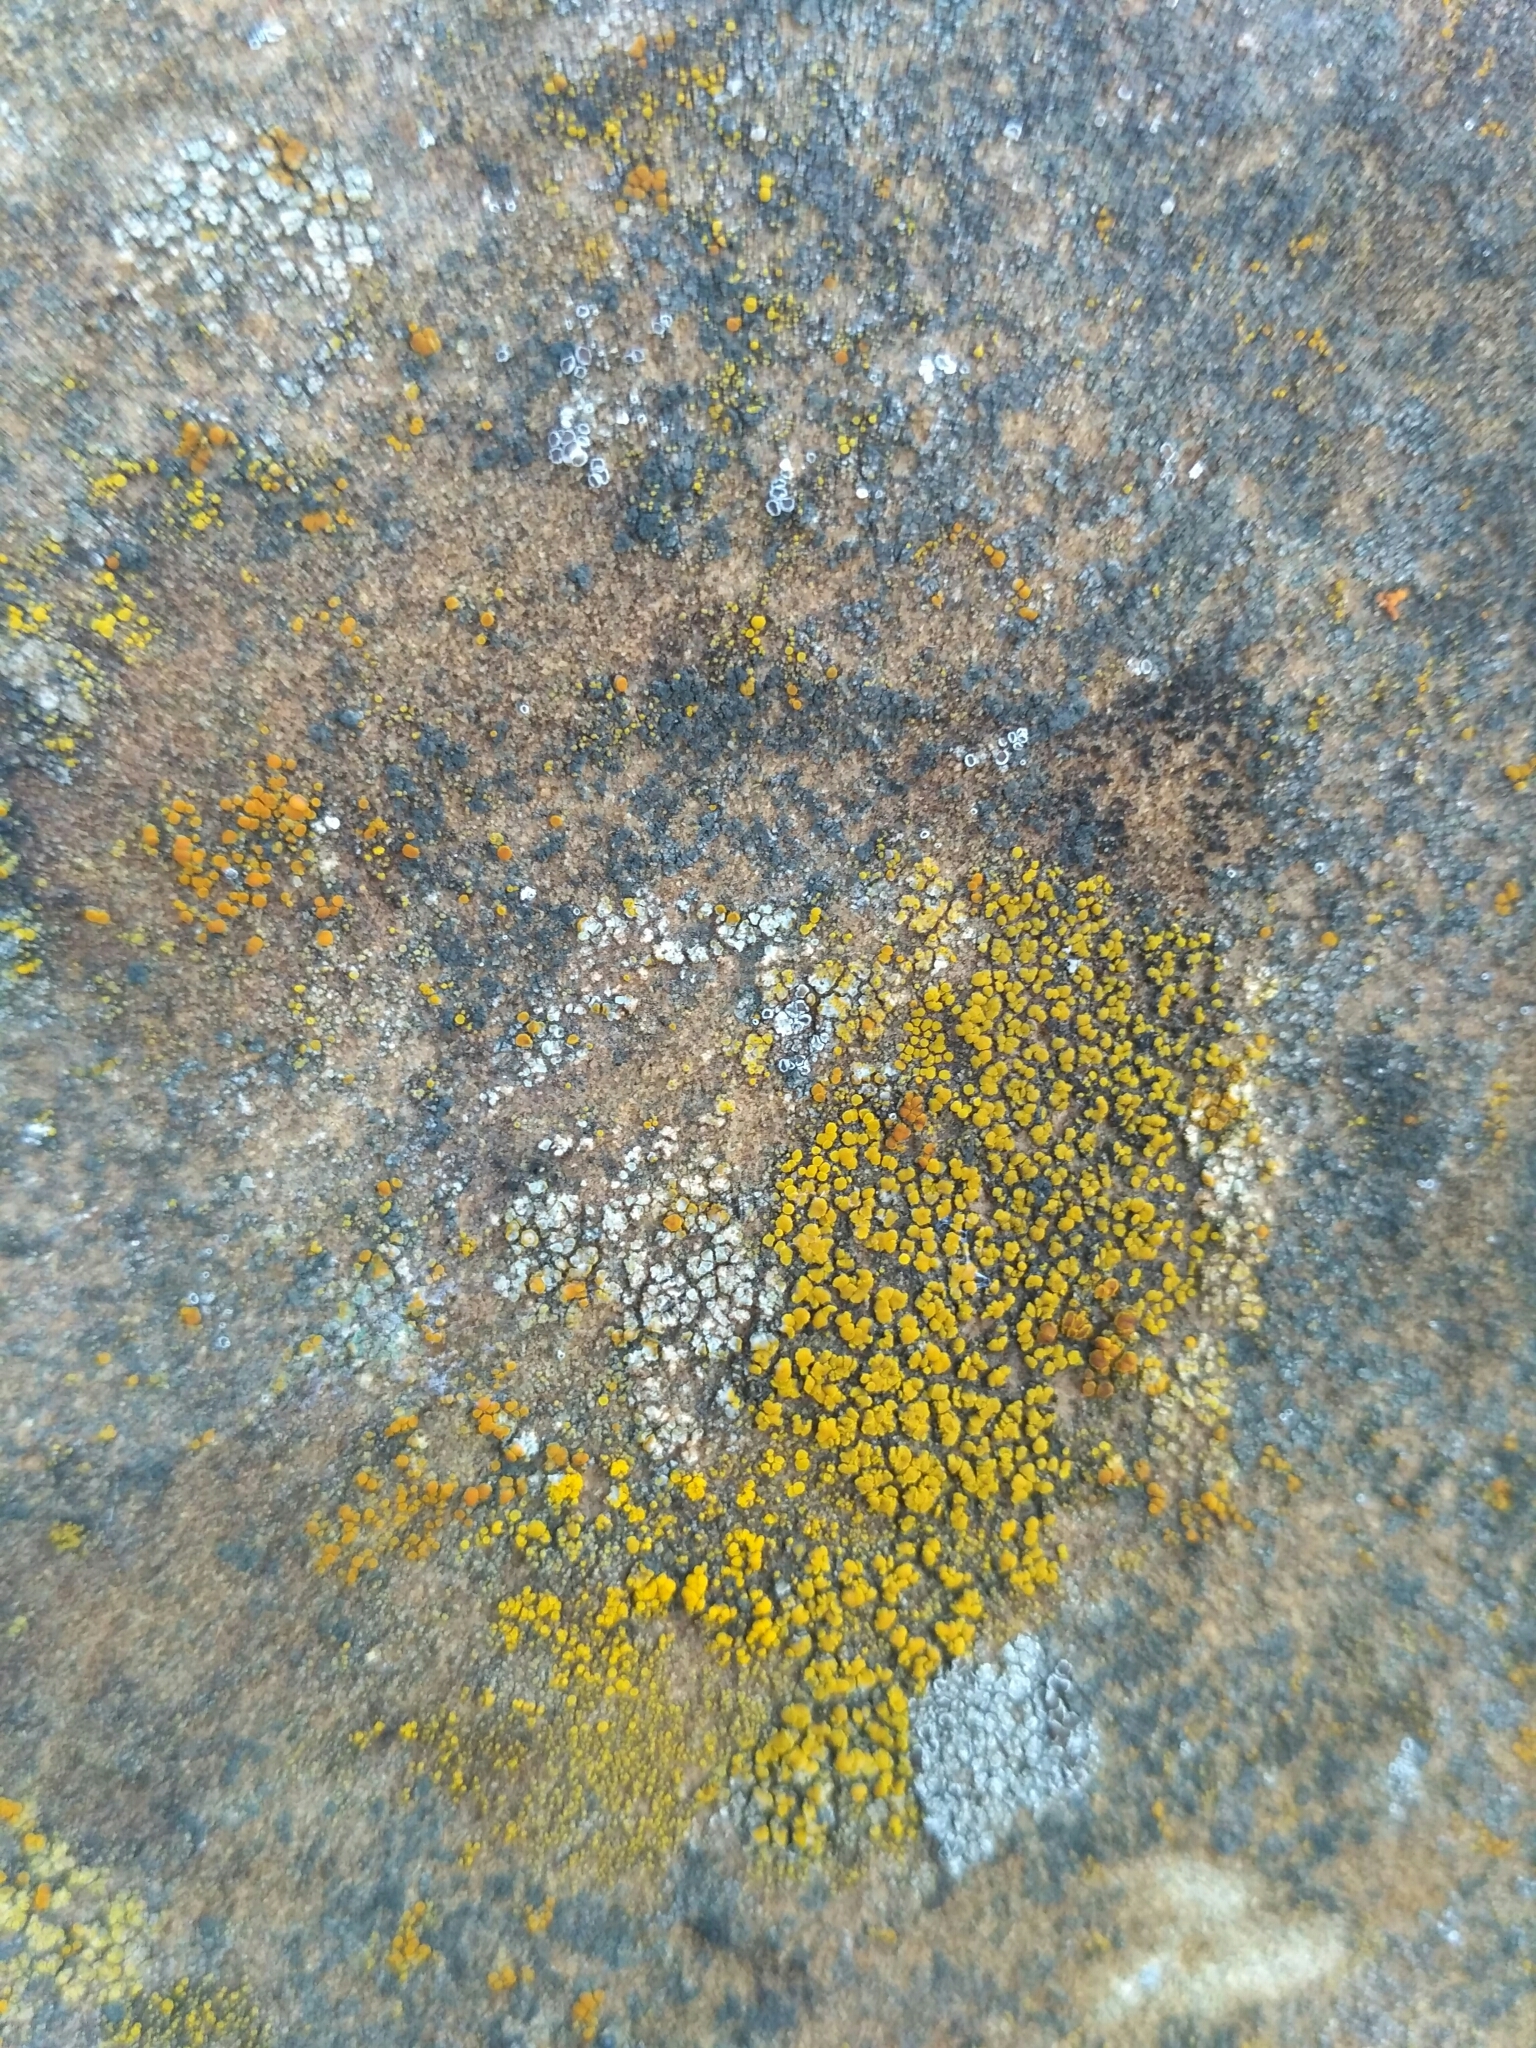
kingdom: Fungi
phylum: Ascomycota
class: Candelariomycetes
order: Candelariales
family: Candelariaceae
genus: Candelariella
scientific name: Candelariella aurella
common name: Hidden goldspeck lichen
